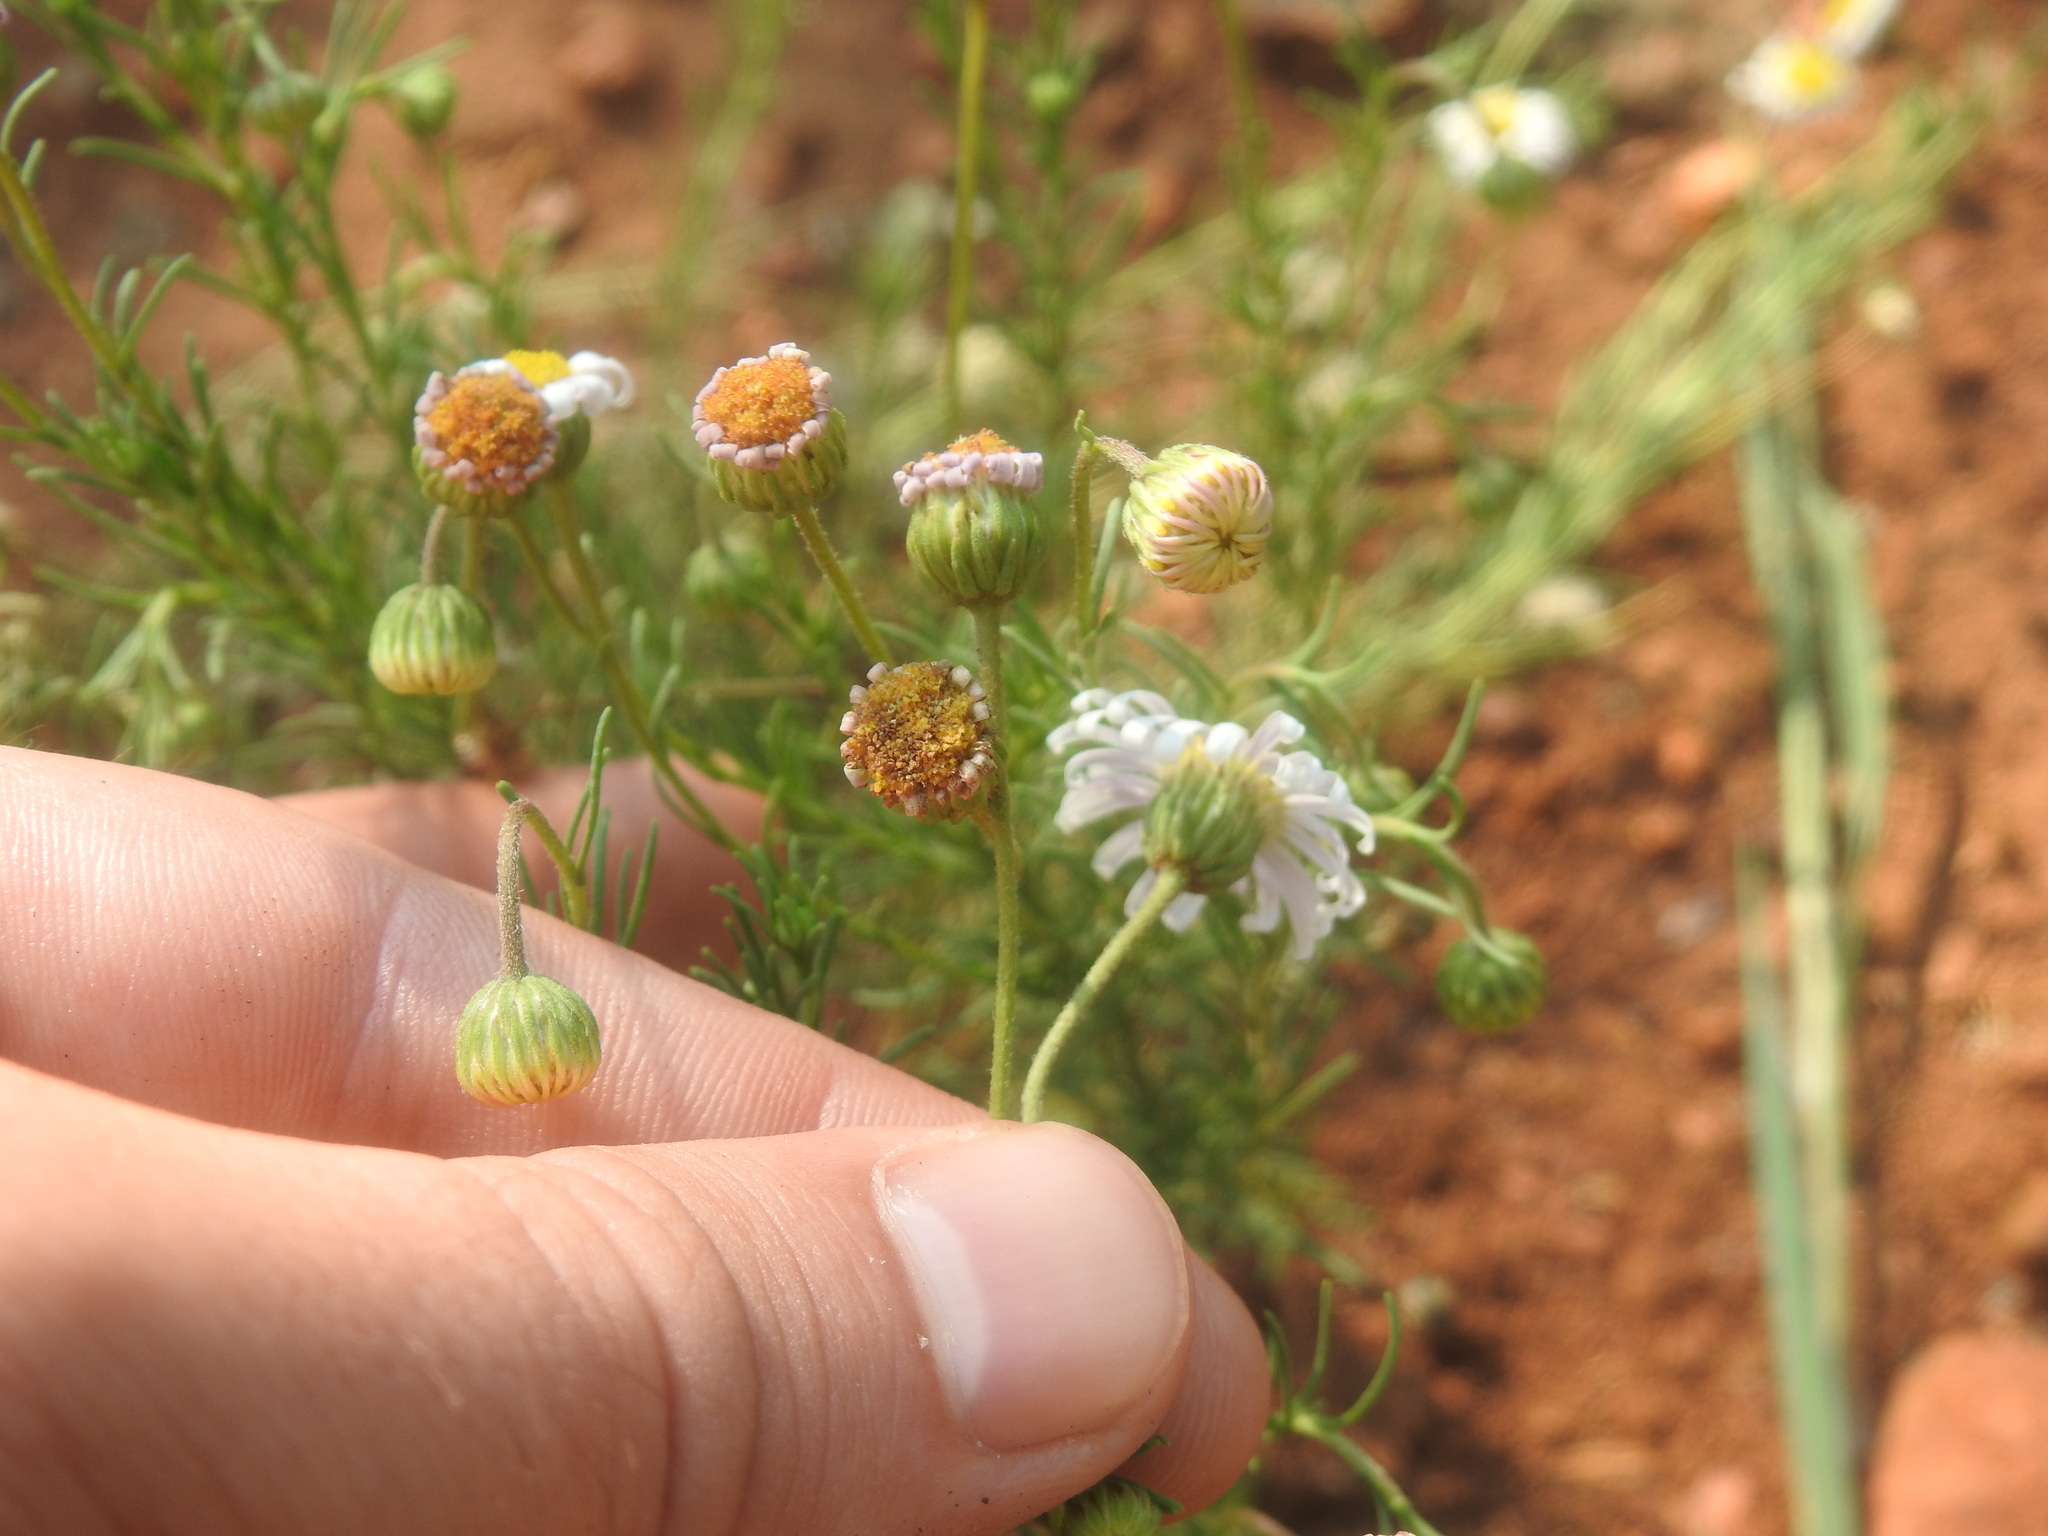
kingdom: Plantae
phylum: Tracheophyta
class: Magnoliopsida
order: Asterales
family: Asteraceae
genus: Felicia
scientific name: Felicia muricata
